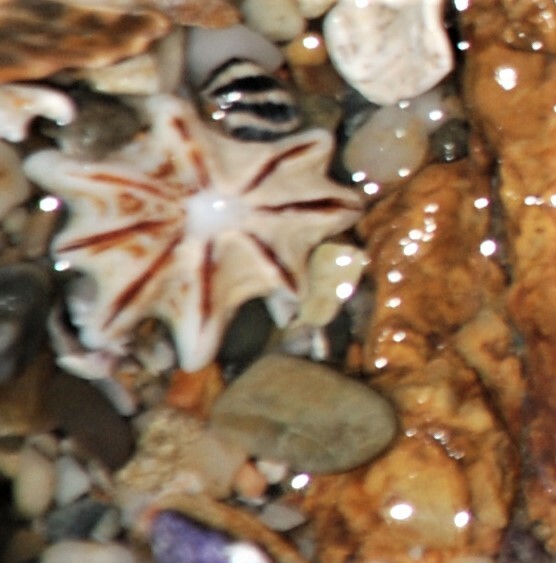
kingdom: Animalia
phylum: Mollusca
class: Gastropoda
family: Patellidae
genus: Scutellastra
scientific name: Scutellastra chapmani
